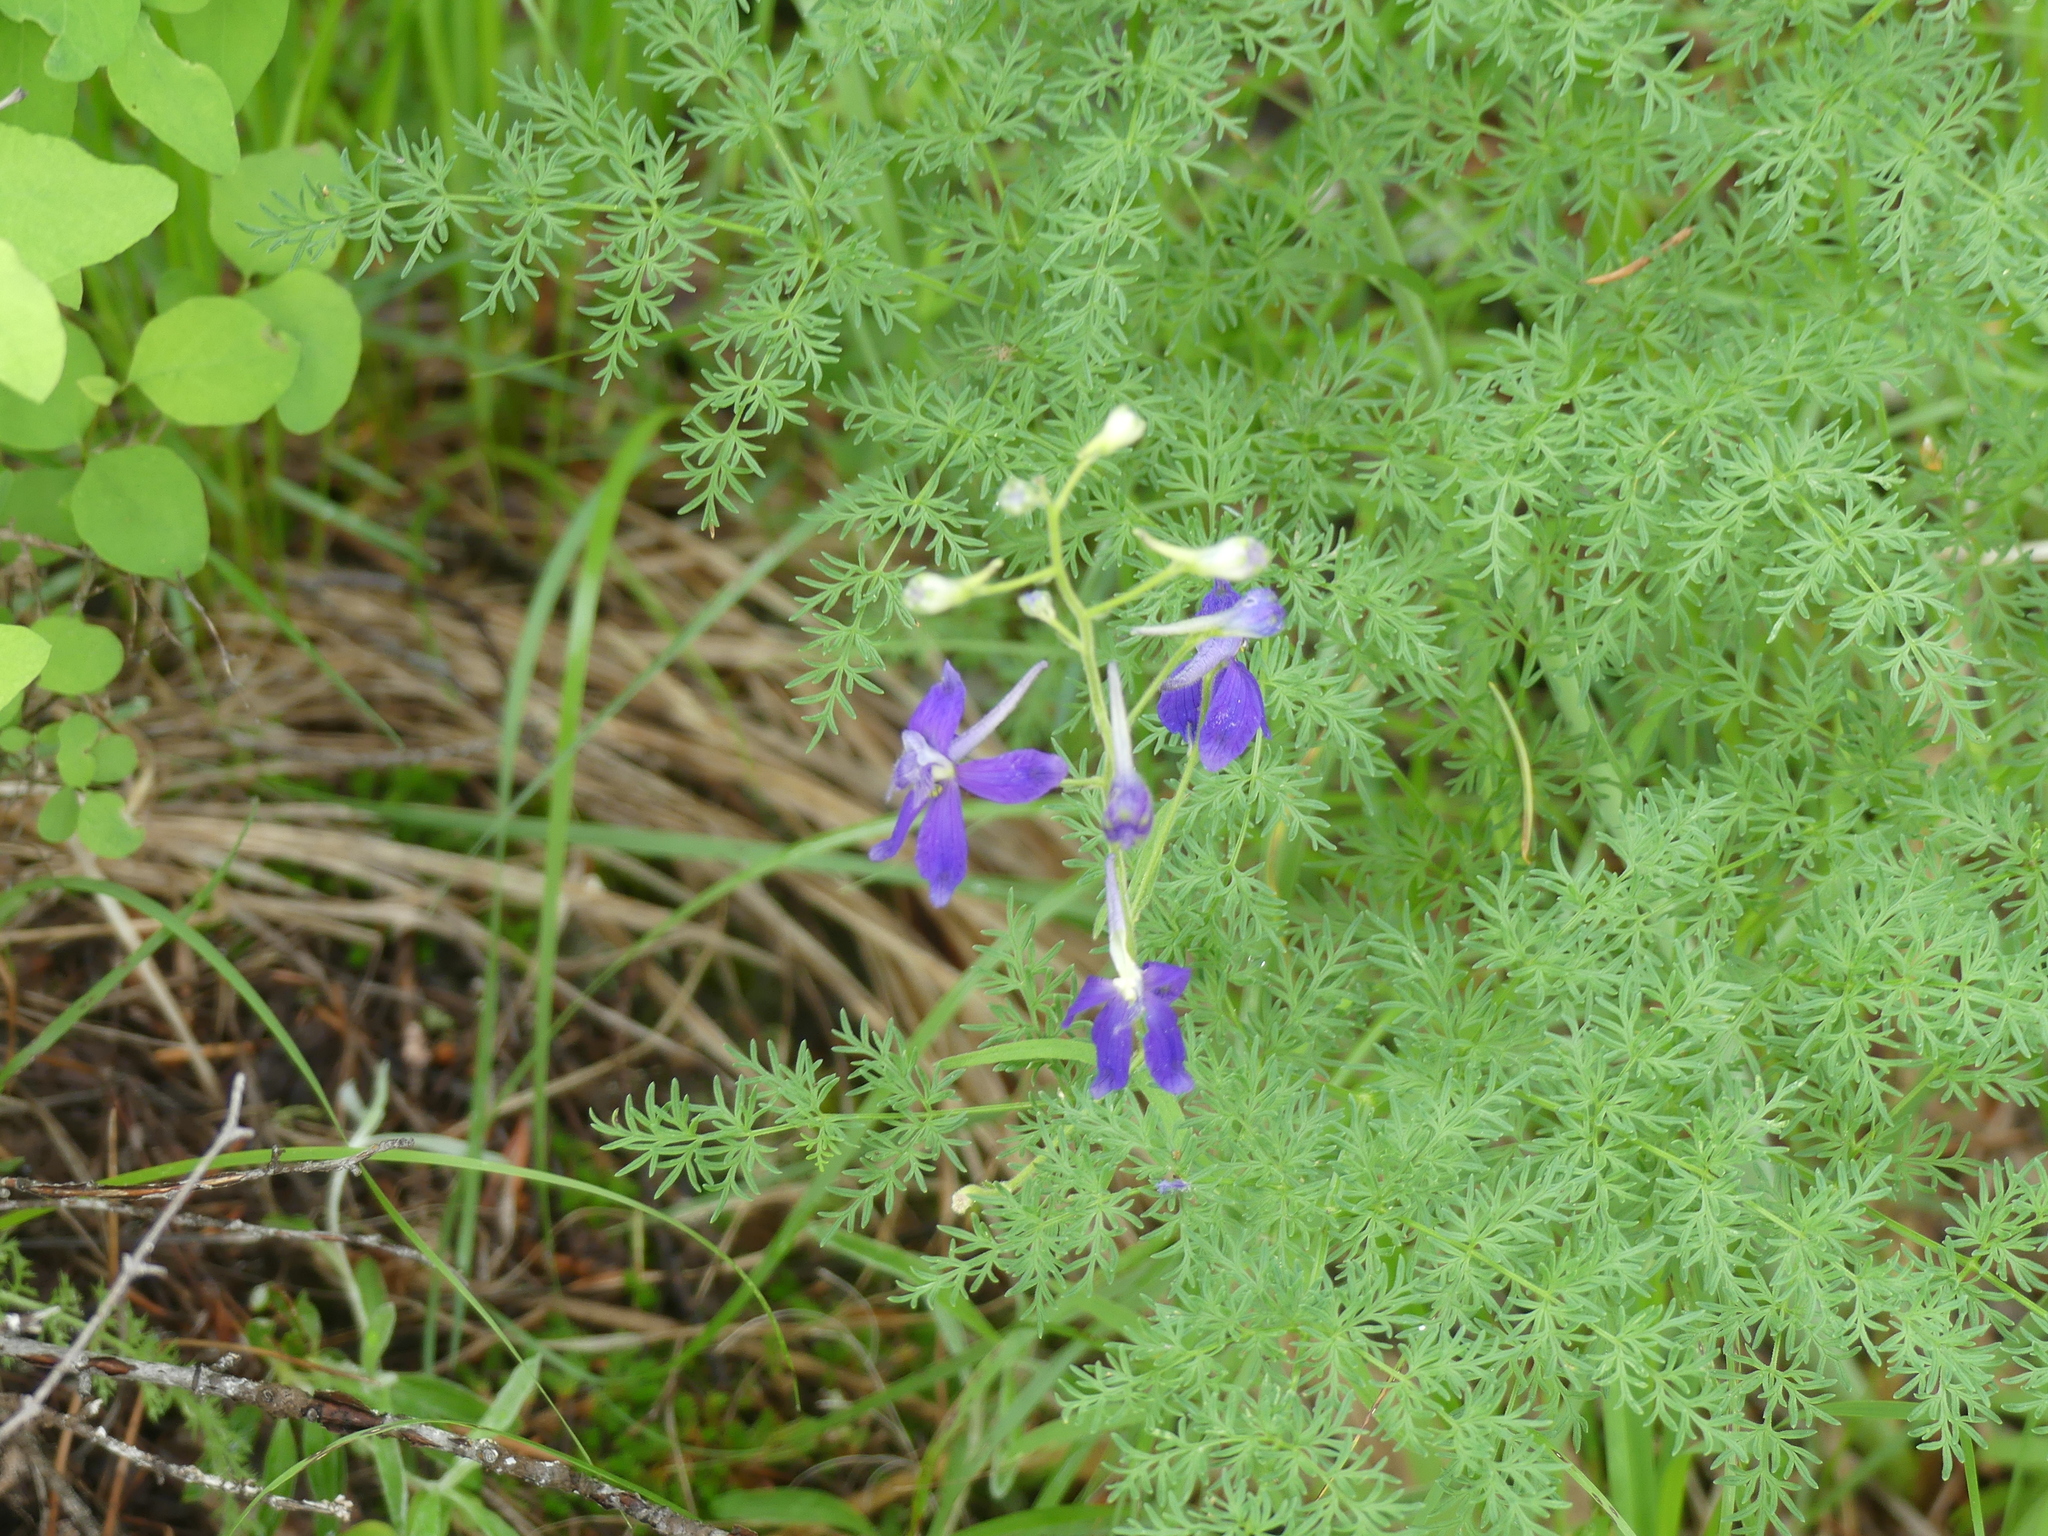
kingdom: Plantae
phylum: Tracheophyta
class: Magnoliopsida
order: Ranunculales
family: Ranunculaceae
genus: Delphinium
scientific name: Delphinium nuttallianum
